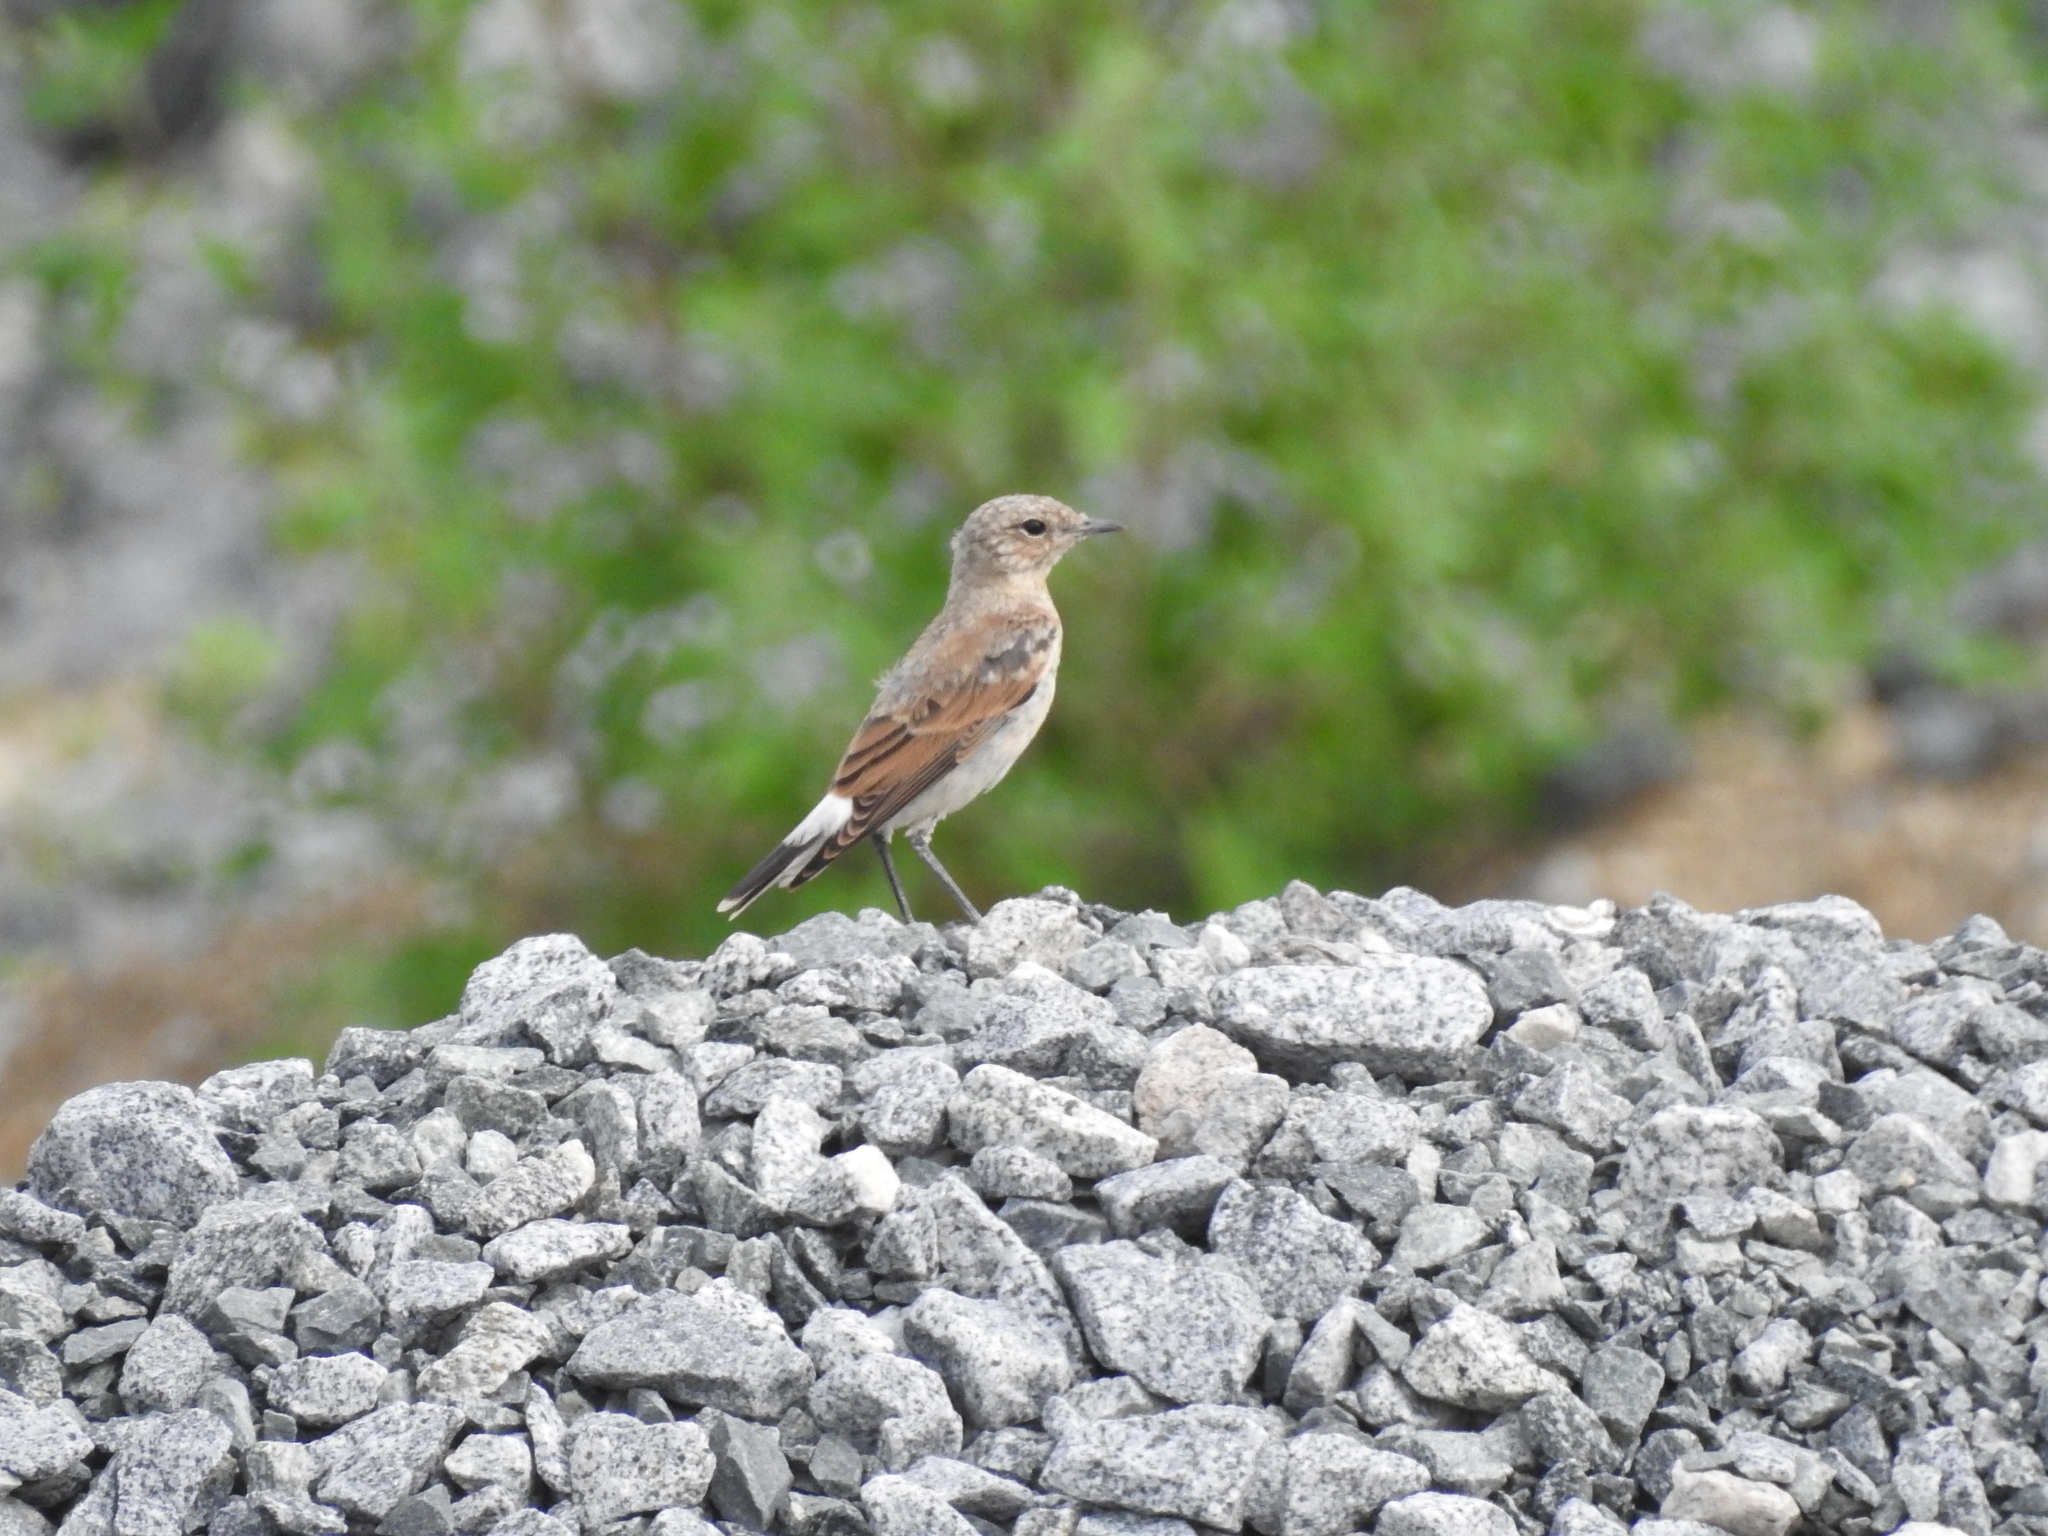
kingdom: Animalia
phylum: Chordata
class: Aves
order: Passeriformes
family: Muscicapidae
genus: Oenanthe
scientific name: Oenanthe oenanthe
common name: Northern wheatear
